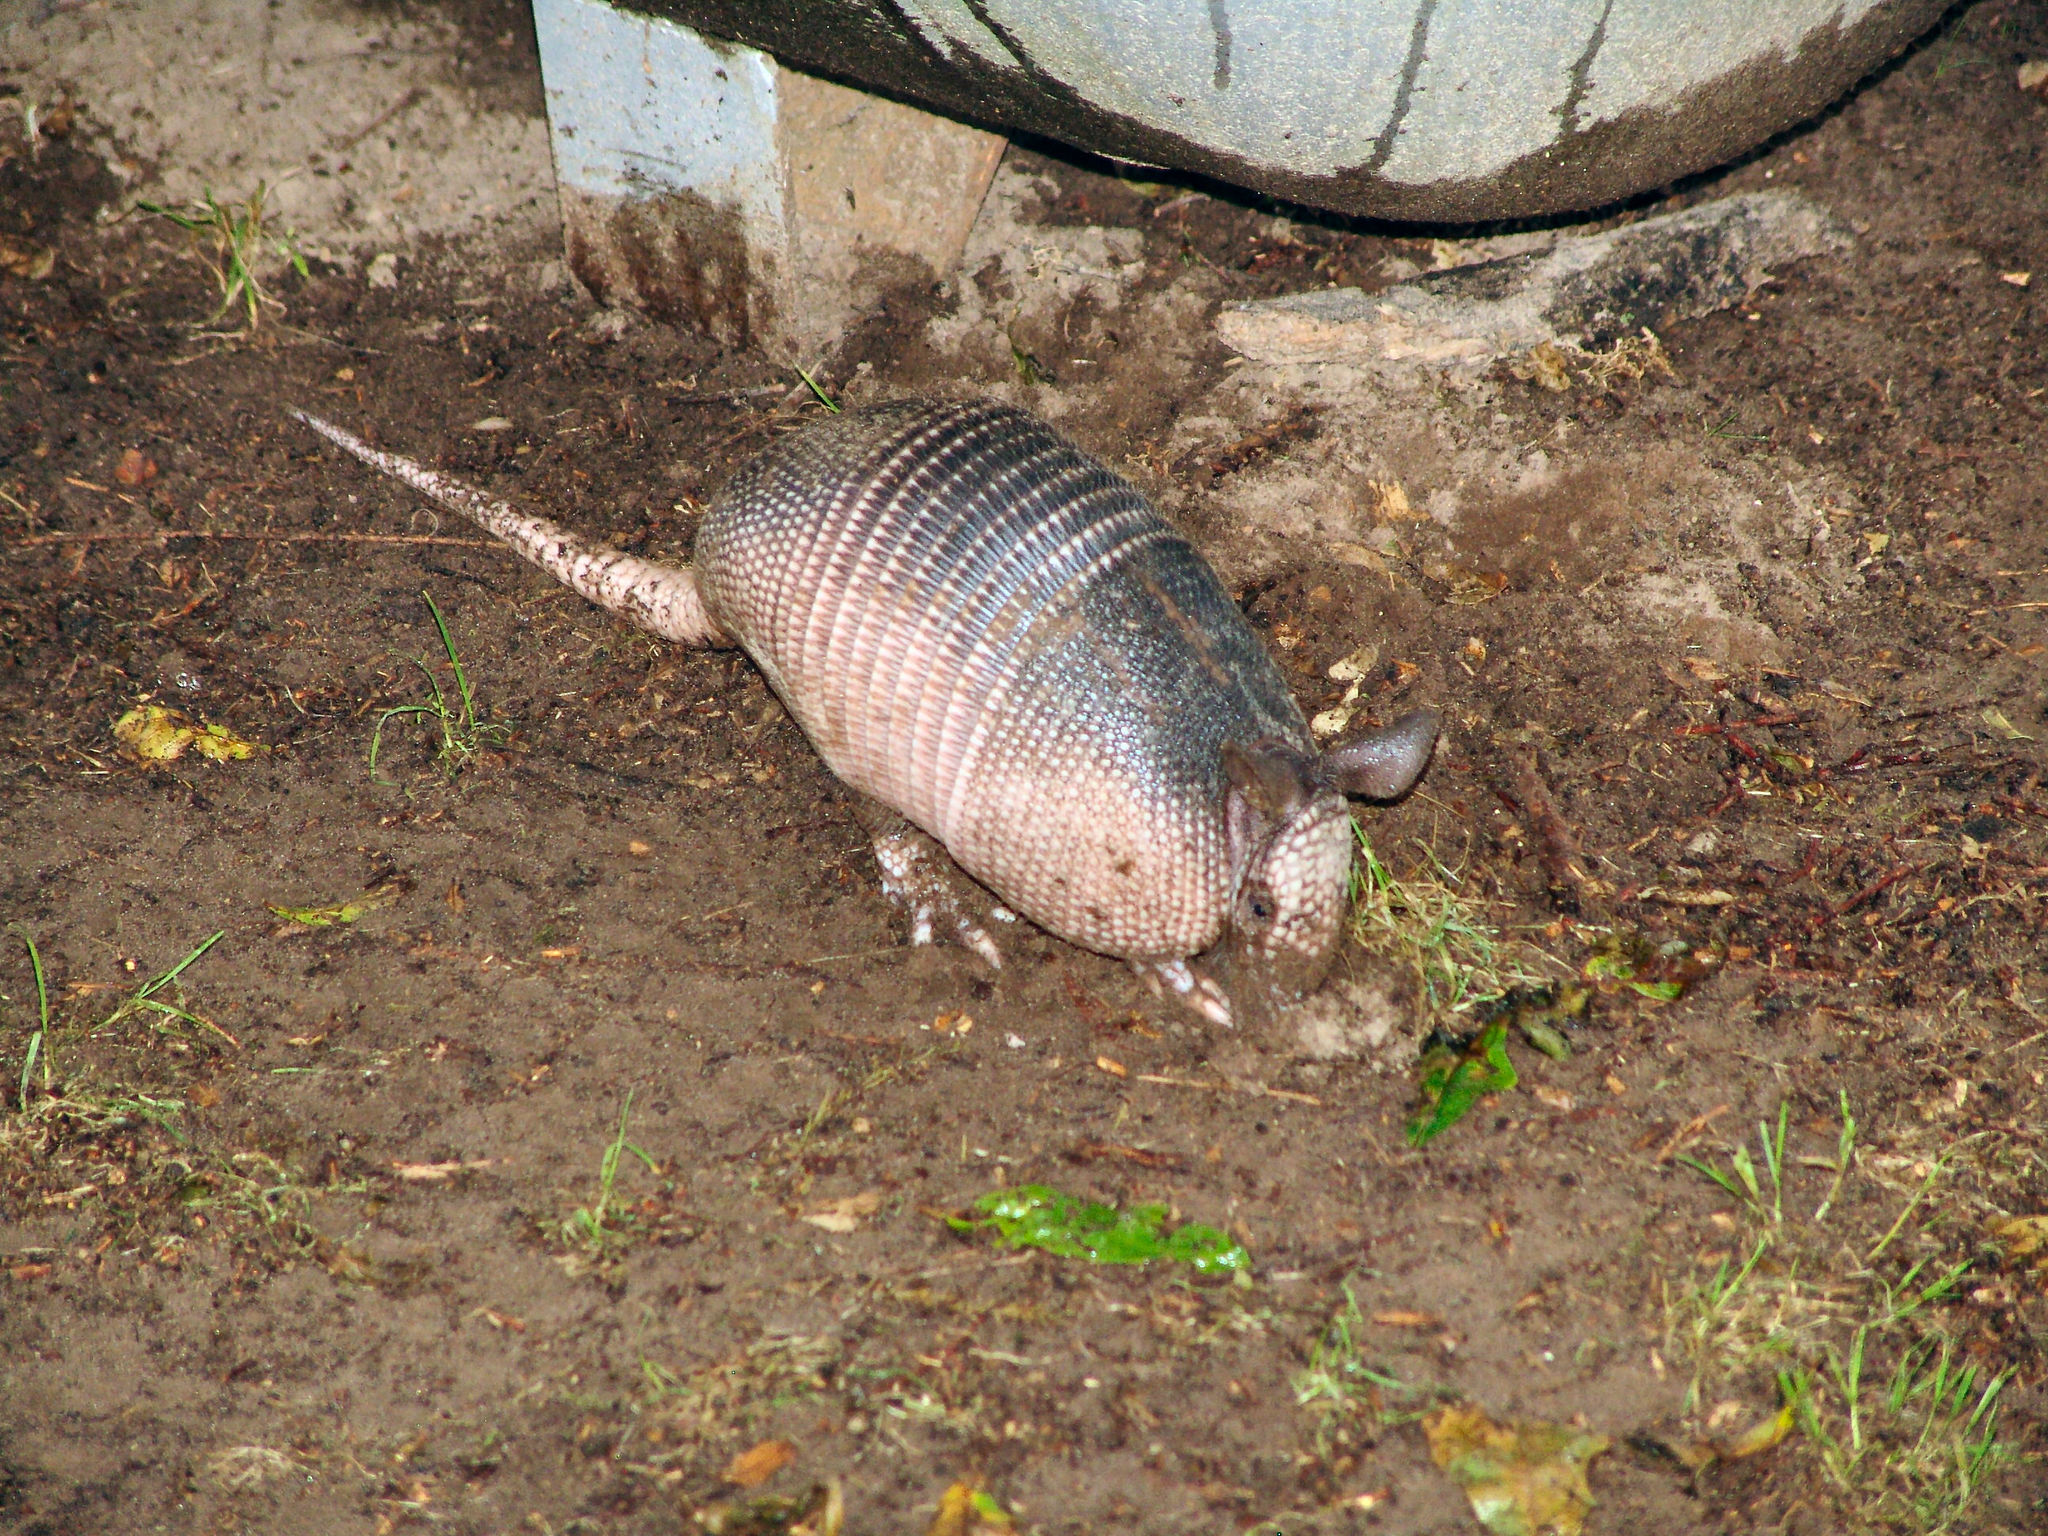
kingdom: Animalia
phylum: Chordata
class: Mammalia
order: Cingulata
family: Dasypodidae
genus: Dasypus
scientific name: Dasypus novemcinctus
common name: Nine-banded armadillo
